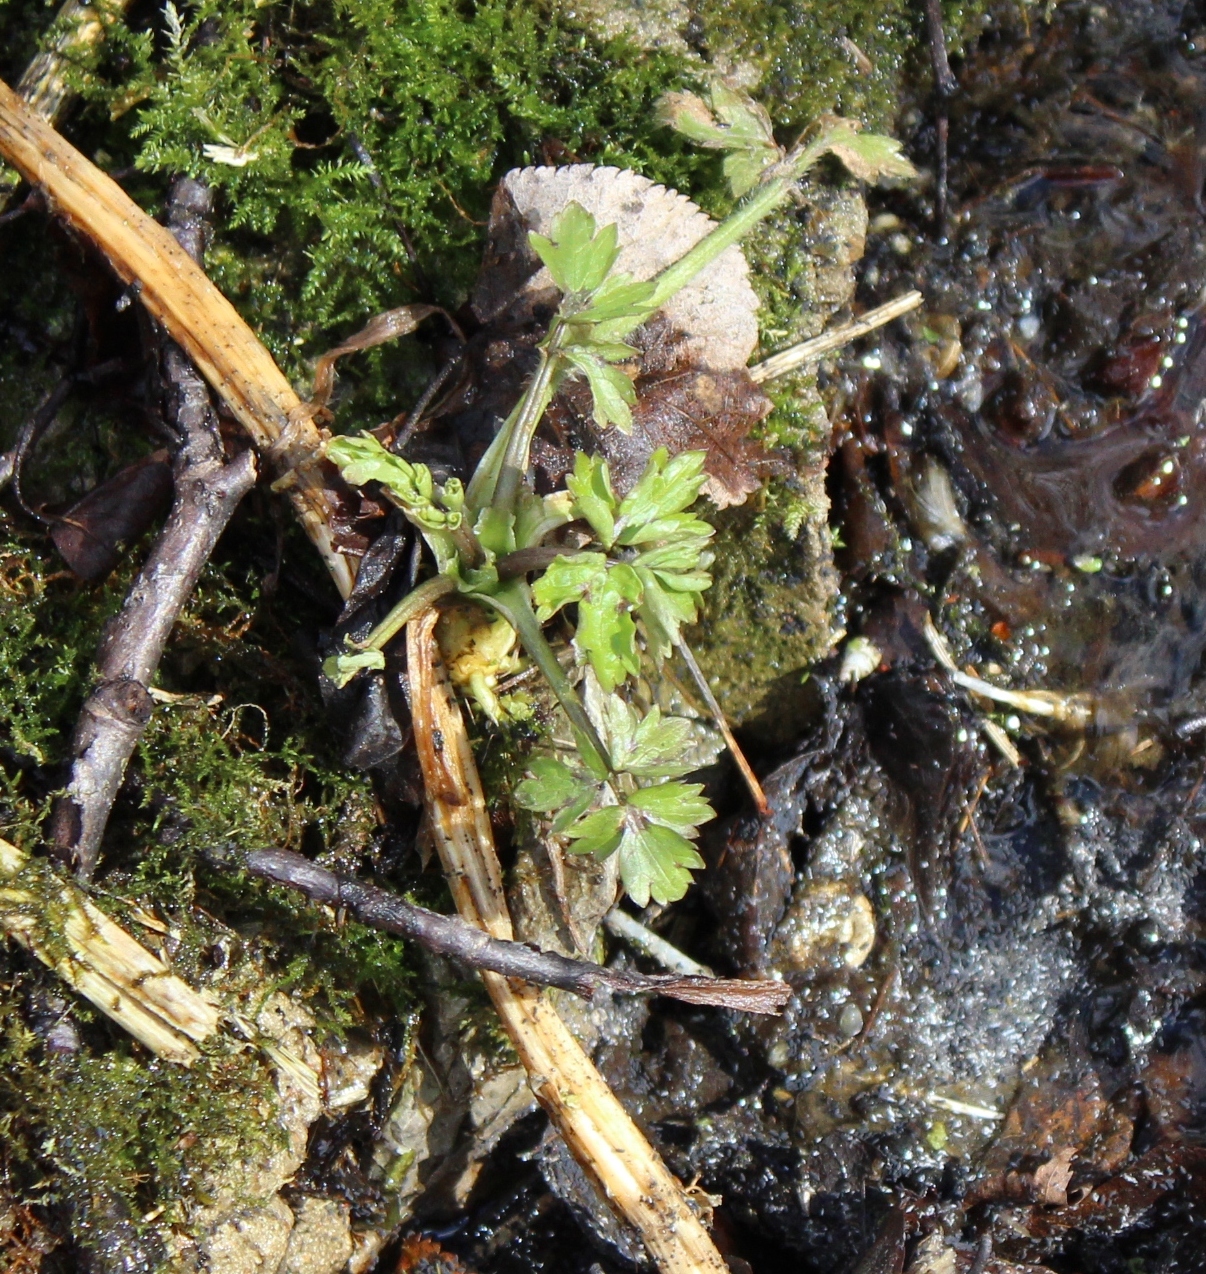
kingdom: Plantae
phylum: Tracheophyta
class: Magnoliopsida
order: Ranunculales
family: Ranunculaceae
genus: Ranunculus
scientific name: Ranunculus repens
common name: Creeping buttercup
